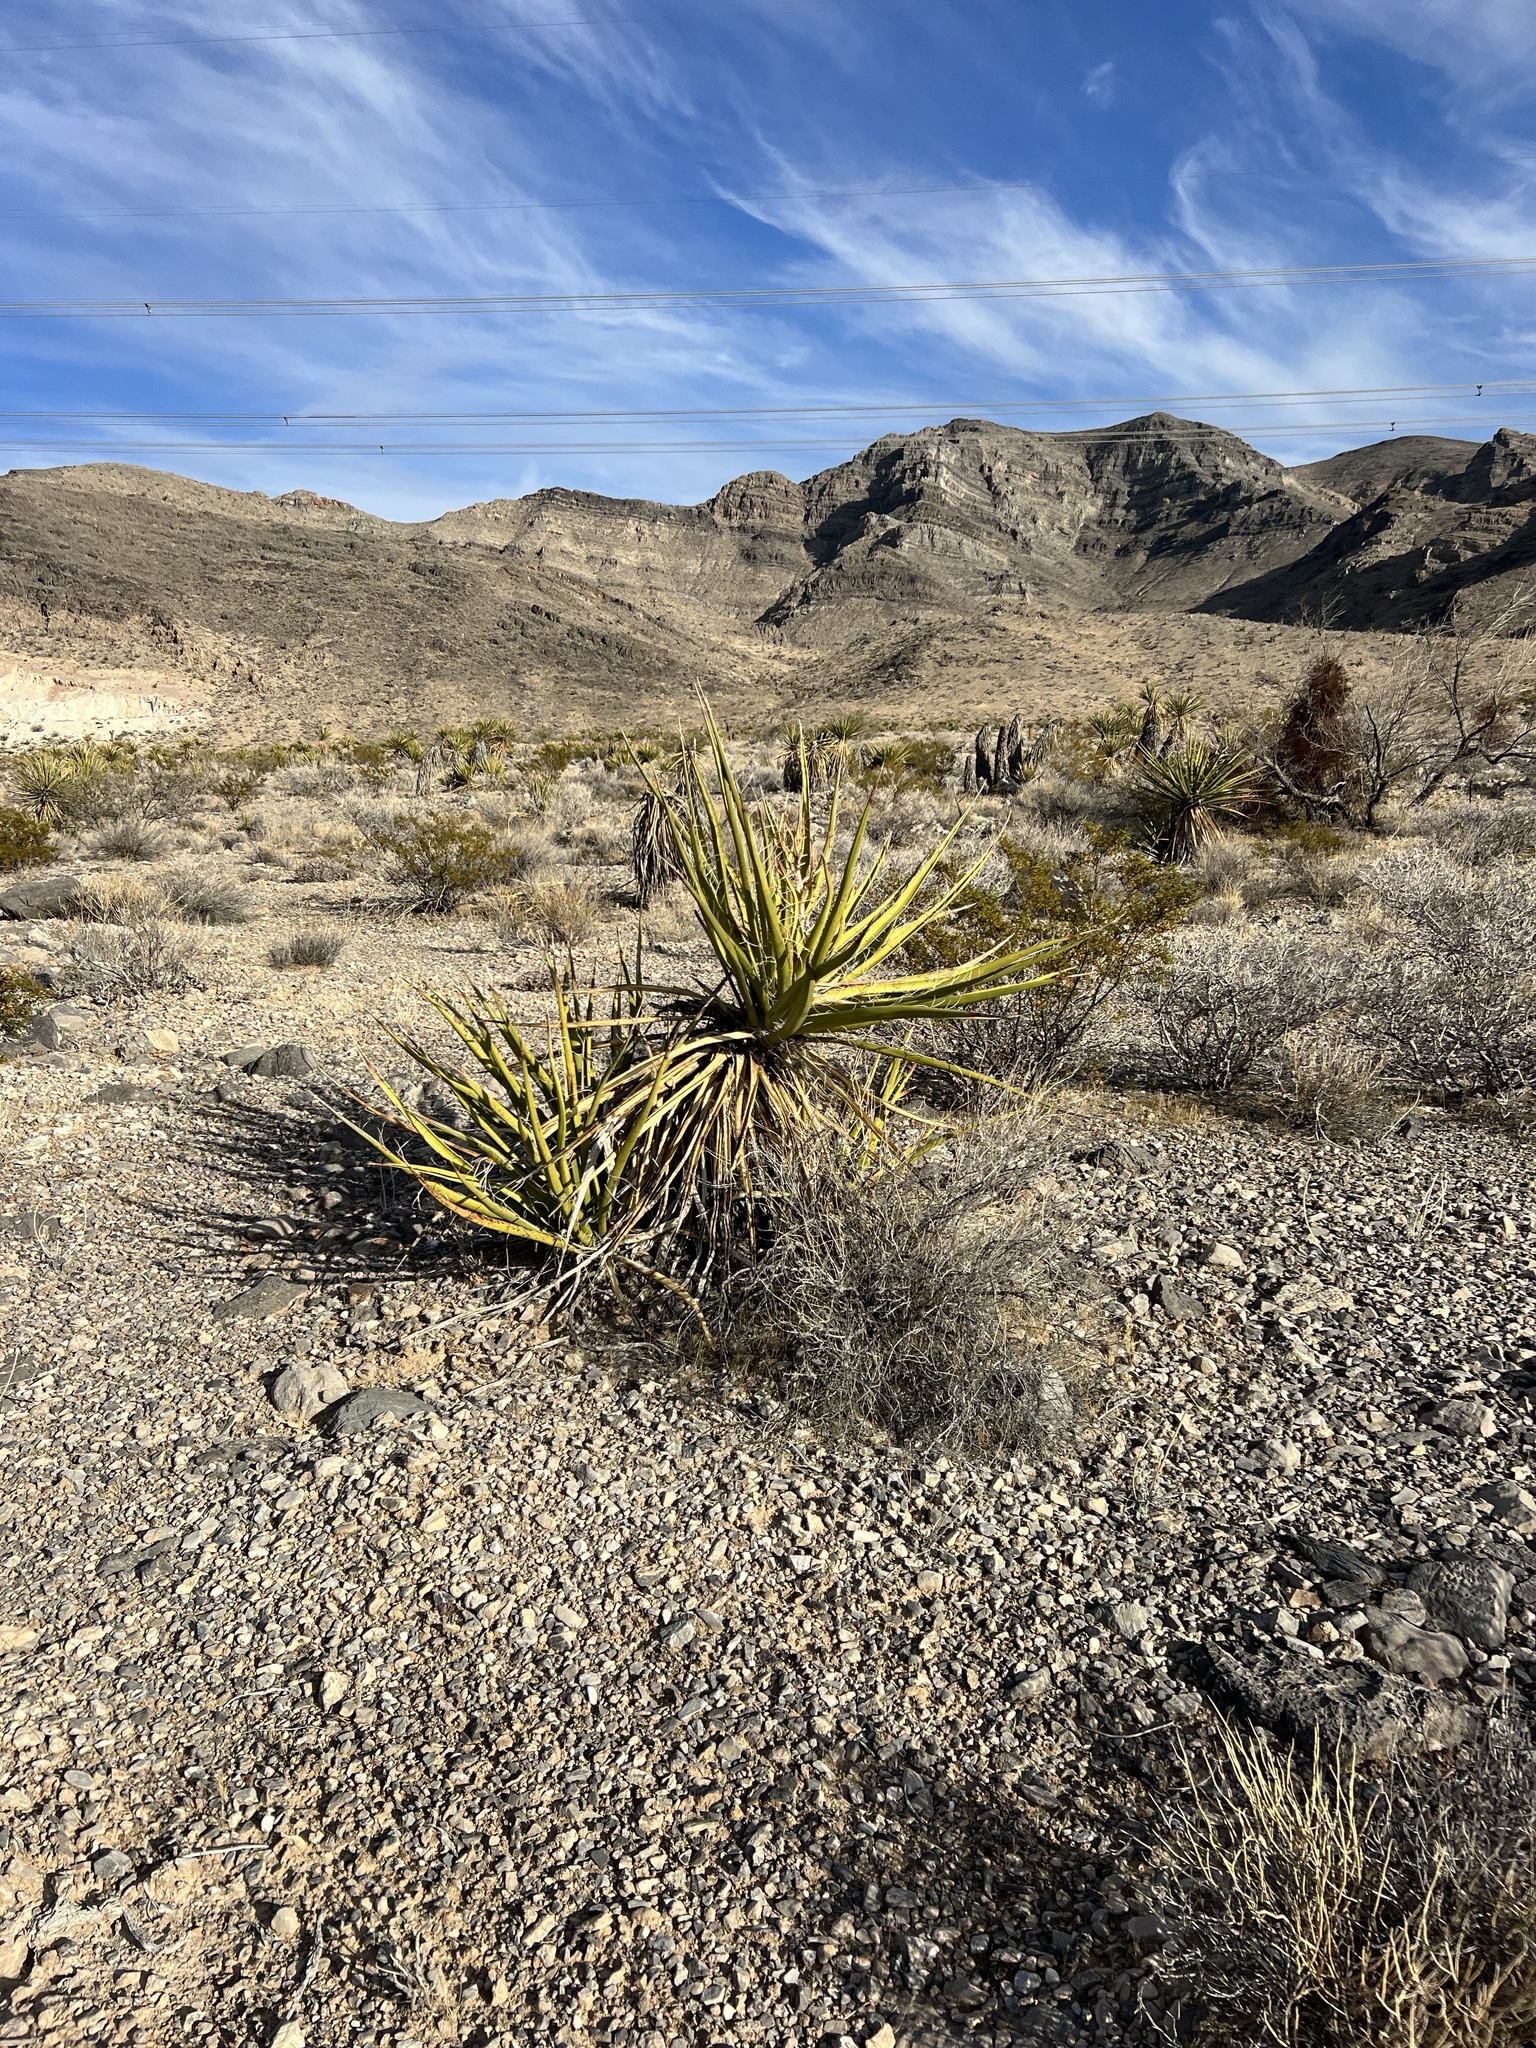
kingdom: Plantae
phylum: Tracheophyta
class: Liliopsida
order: Asparagales
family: Asparagaceae
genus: Yucca
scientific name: Yucca schidigera
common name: Mojave yucca
